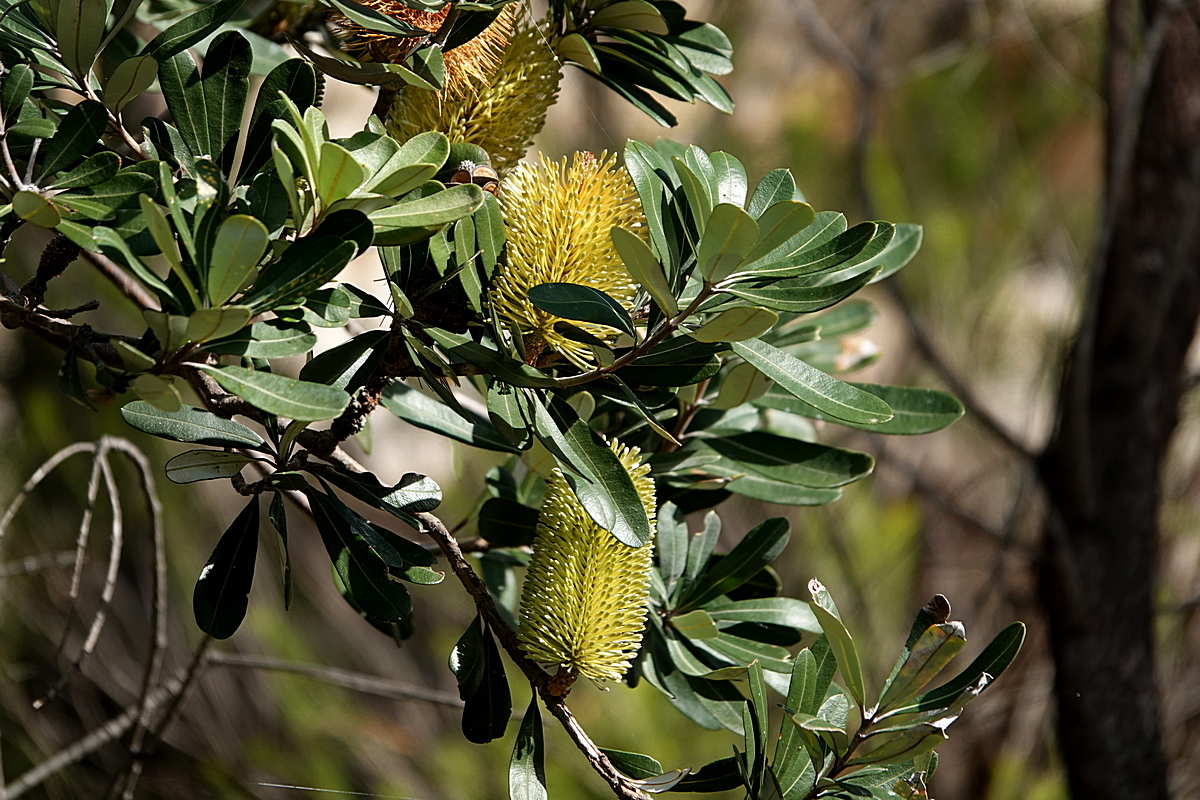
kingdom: Plantae
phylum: Tracheophyta
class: Magnoliopsida
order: Proteales
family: Proteaceae
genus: Banksia
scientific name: Banksia integrifolia
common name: White-honeysuckle
